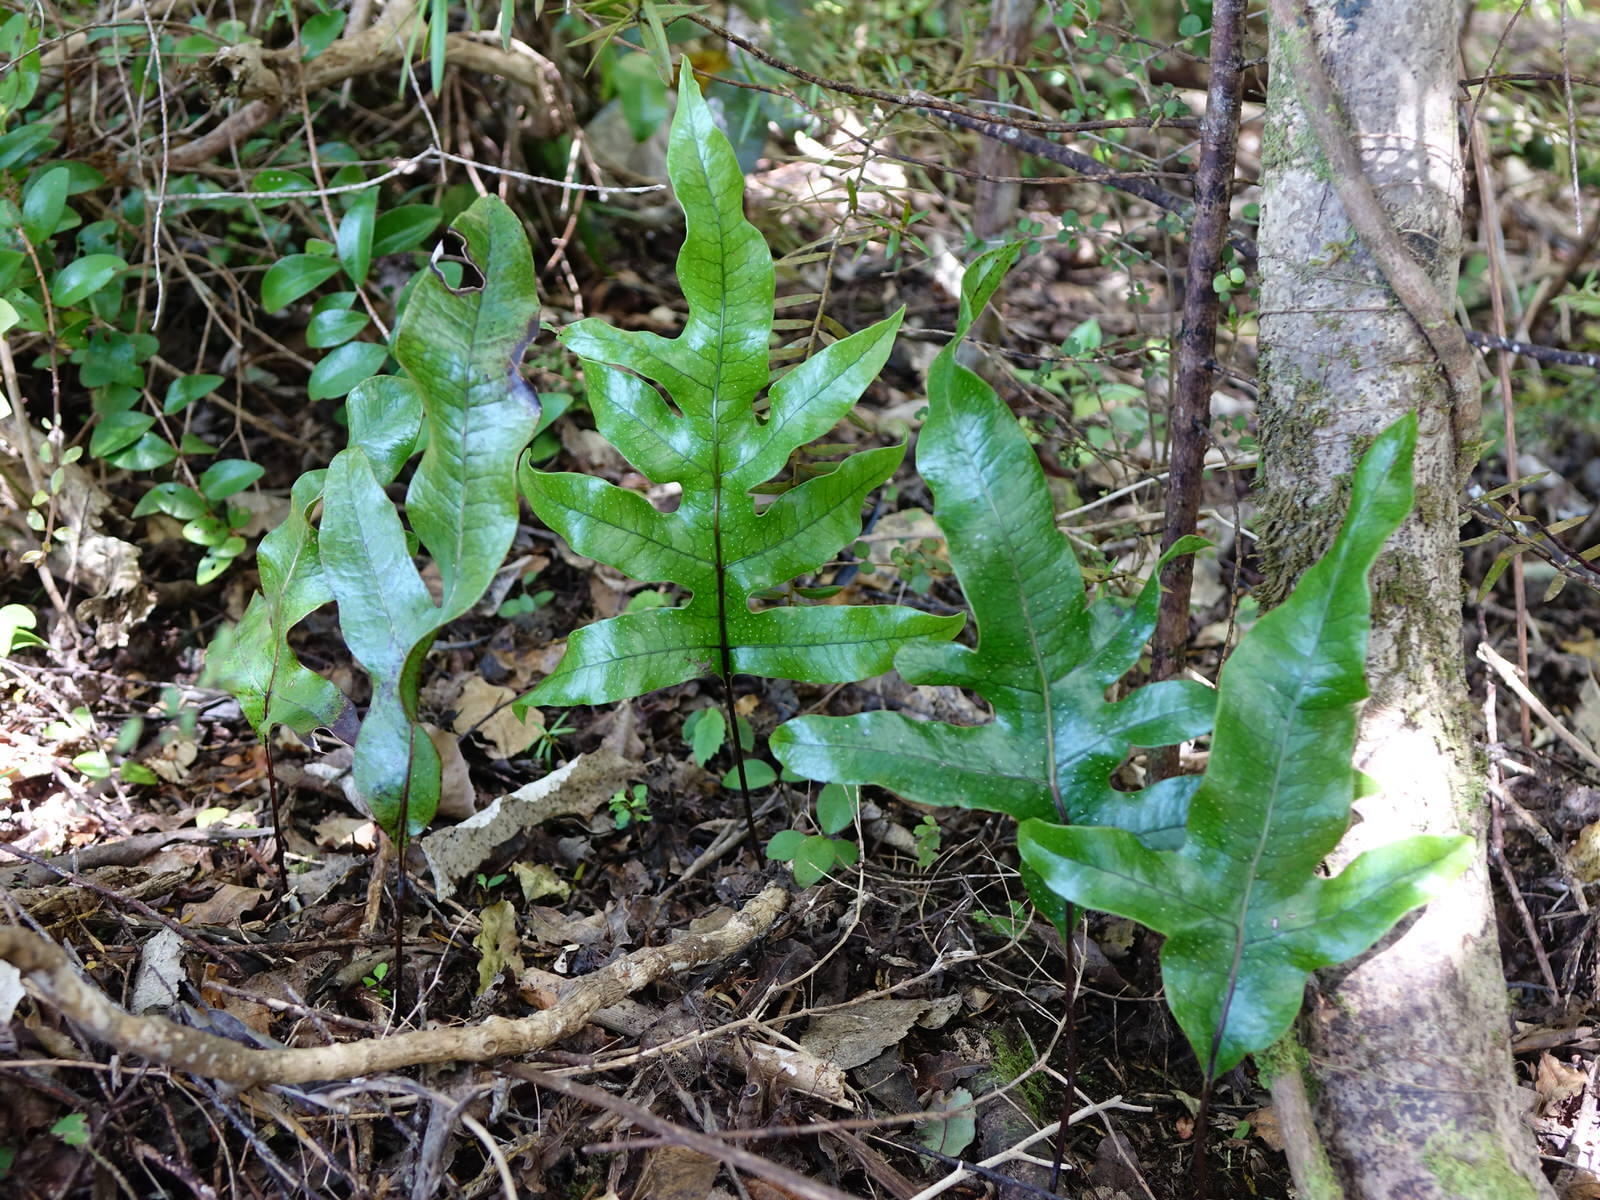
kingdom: Plantae
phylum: Tracheophyta
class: Polypodiopsida
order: Polypodiales
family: Polypodiaceae
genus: Lecanopteris
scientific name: Lecanopteris pustulata
